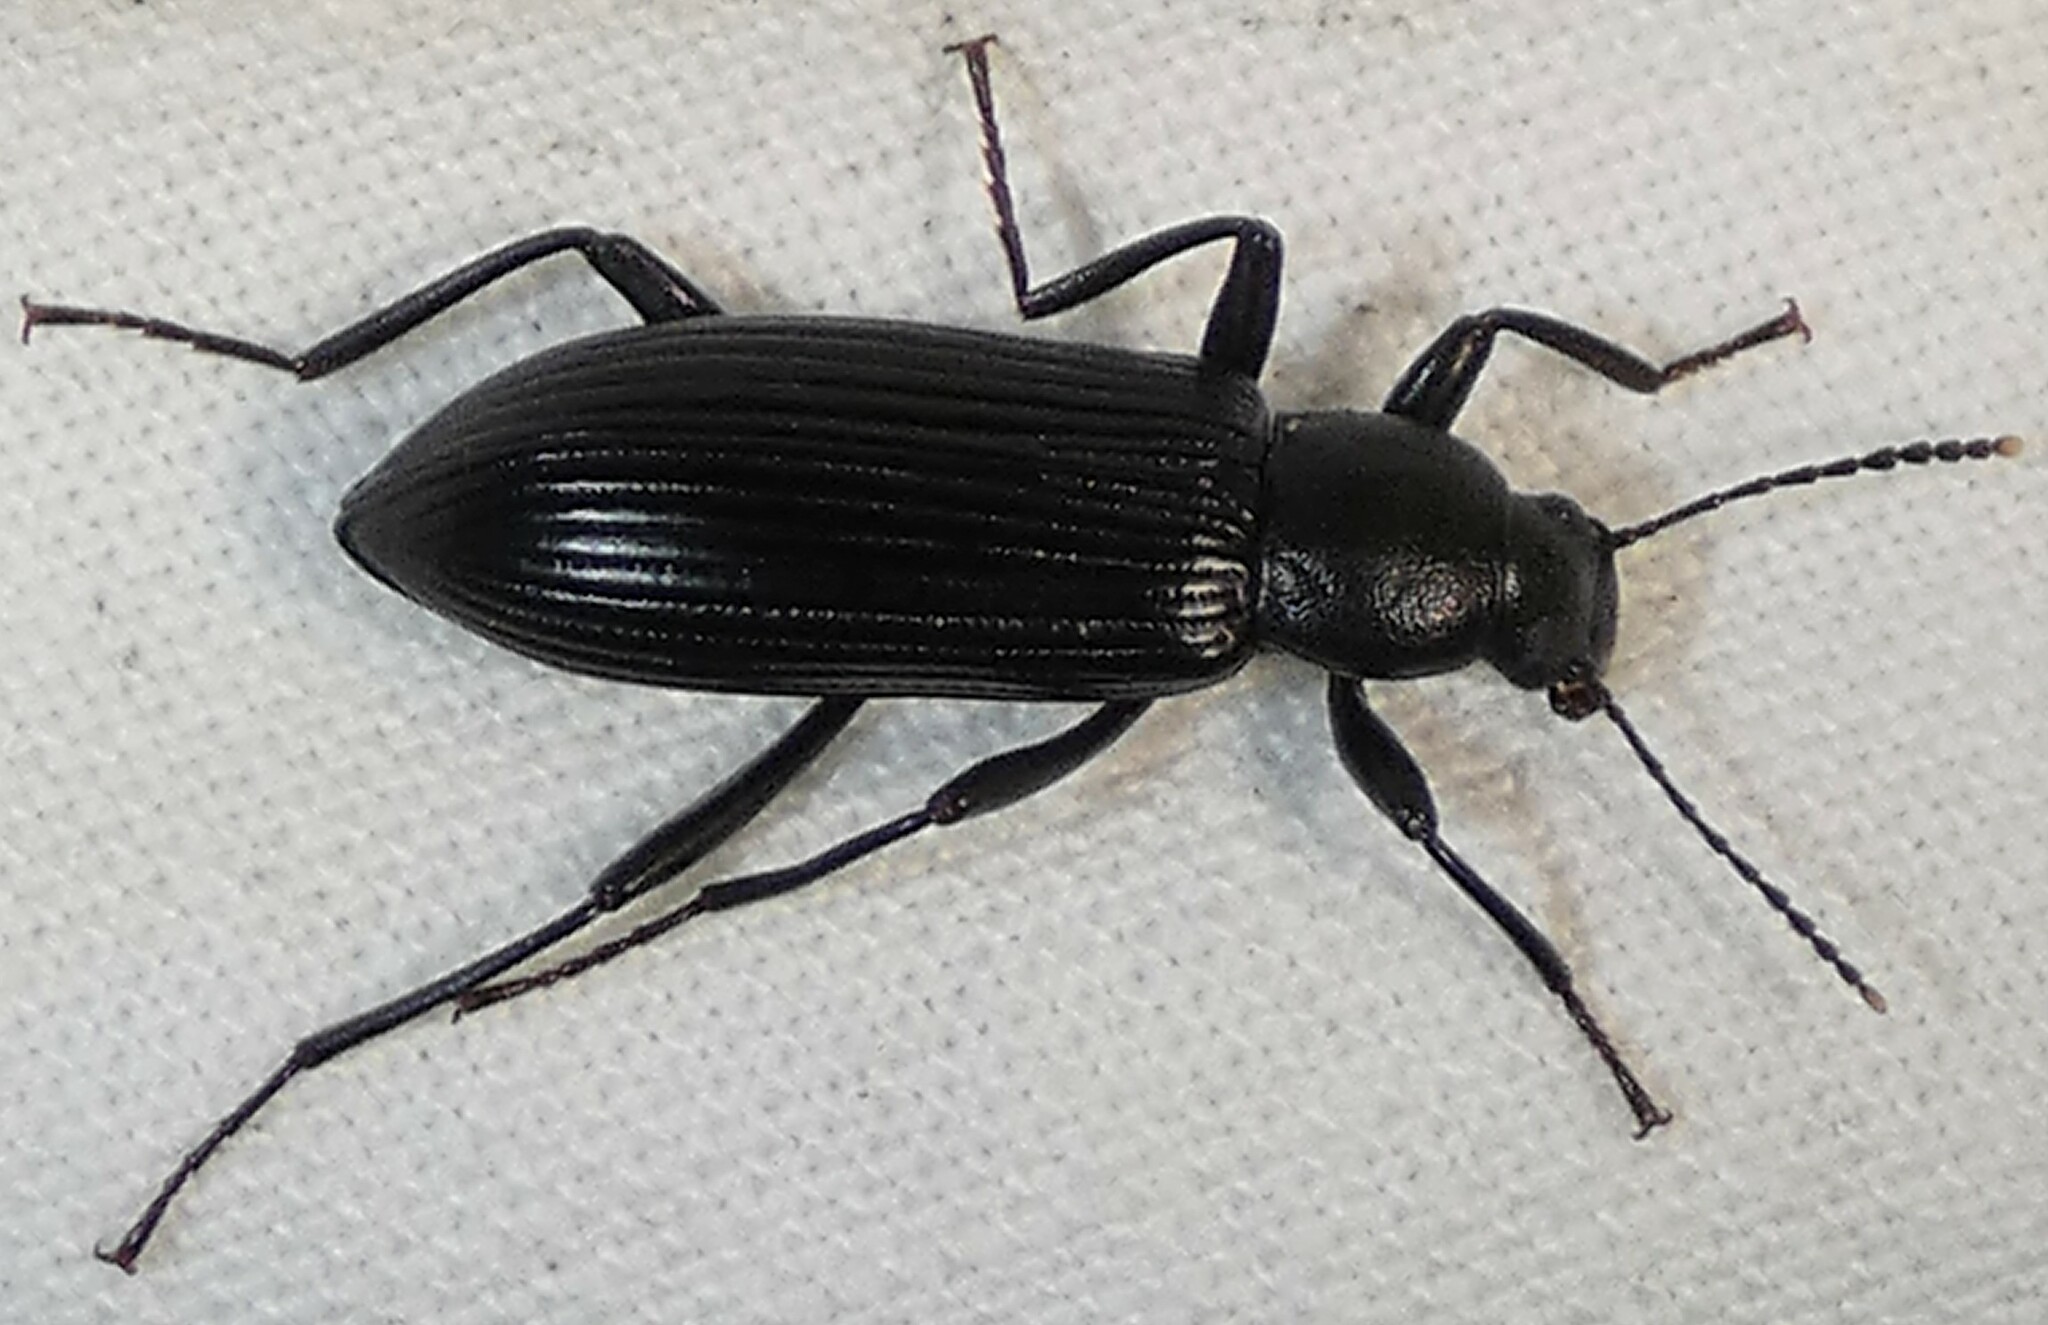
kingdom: Animalia
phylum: Arthropoda
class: Insecta
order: Coleoptera
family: Tenebrionidae
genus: Strongylium
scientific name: Strongylium tenuicolle
